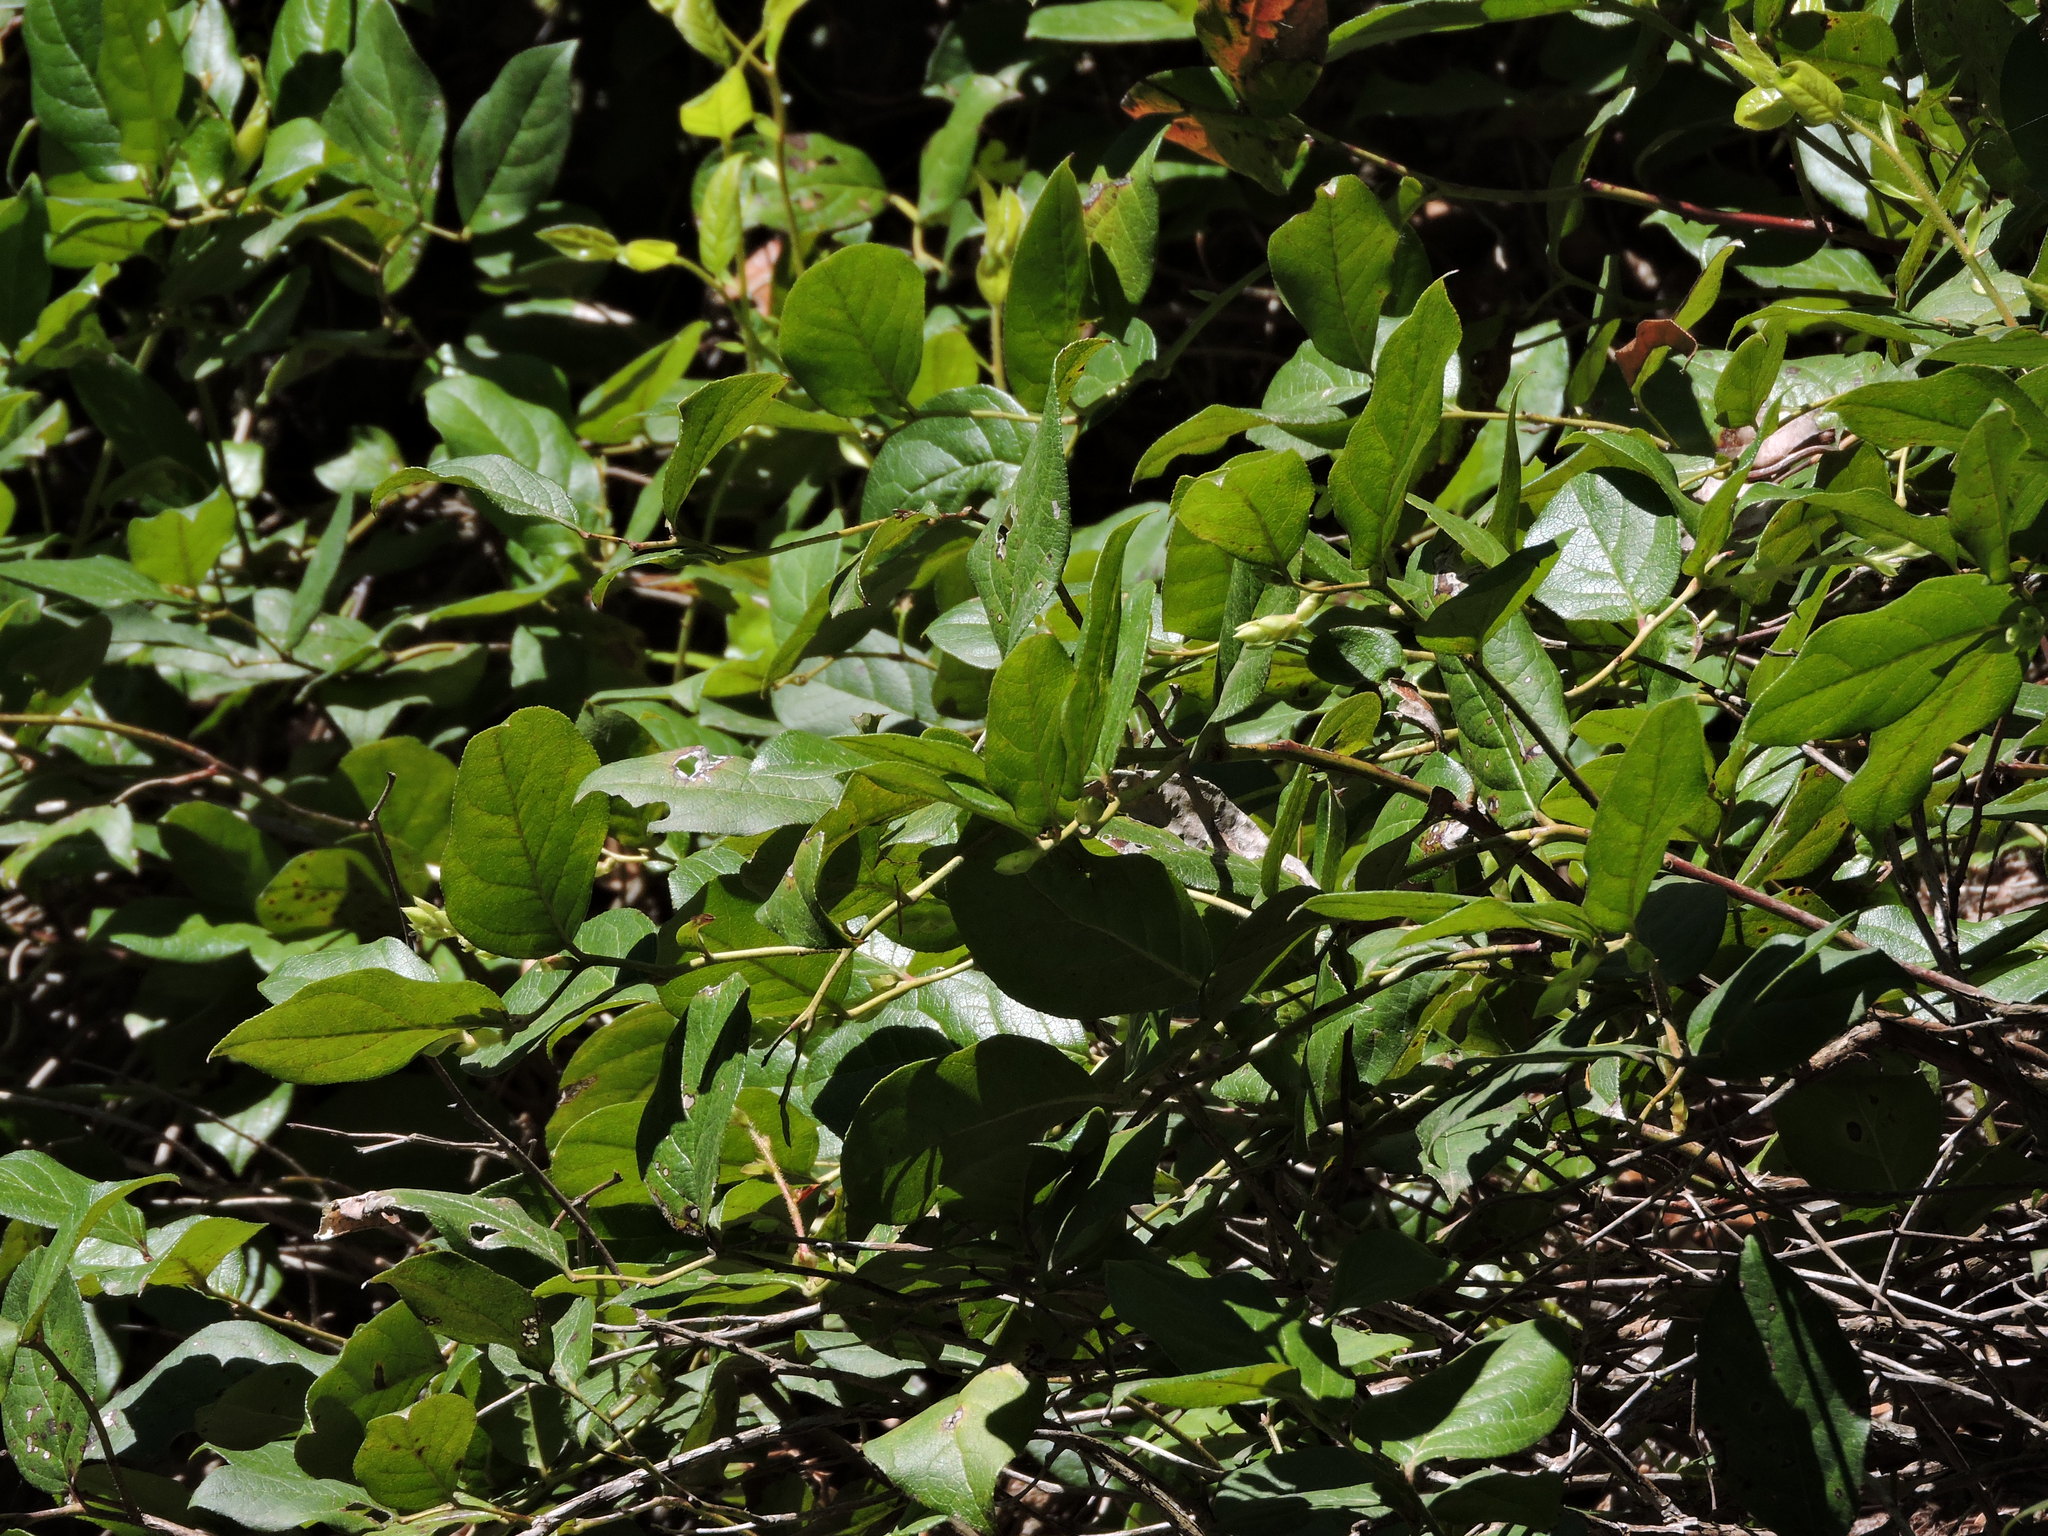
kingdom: Plantae
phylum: Tracheophyta
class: Magnoliopsida
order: Ericales
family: Ericaceae
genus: Gaultheria
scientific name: Gaultheria shallon
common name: Shallon
